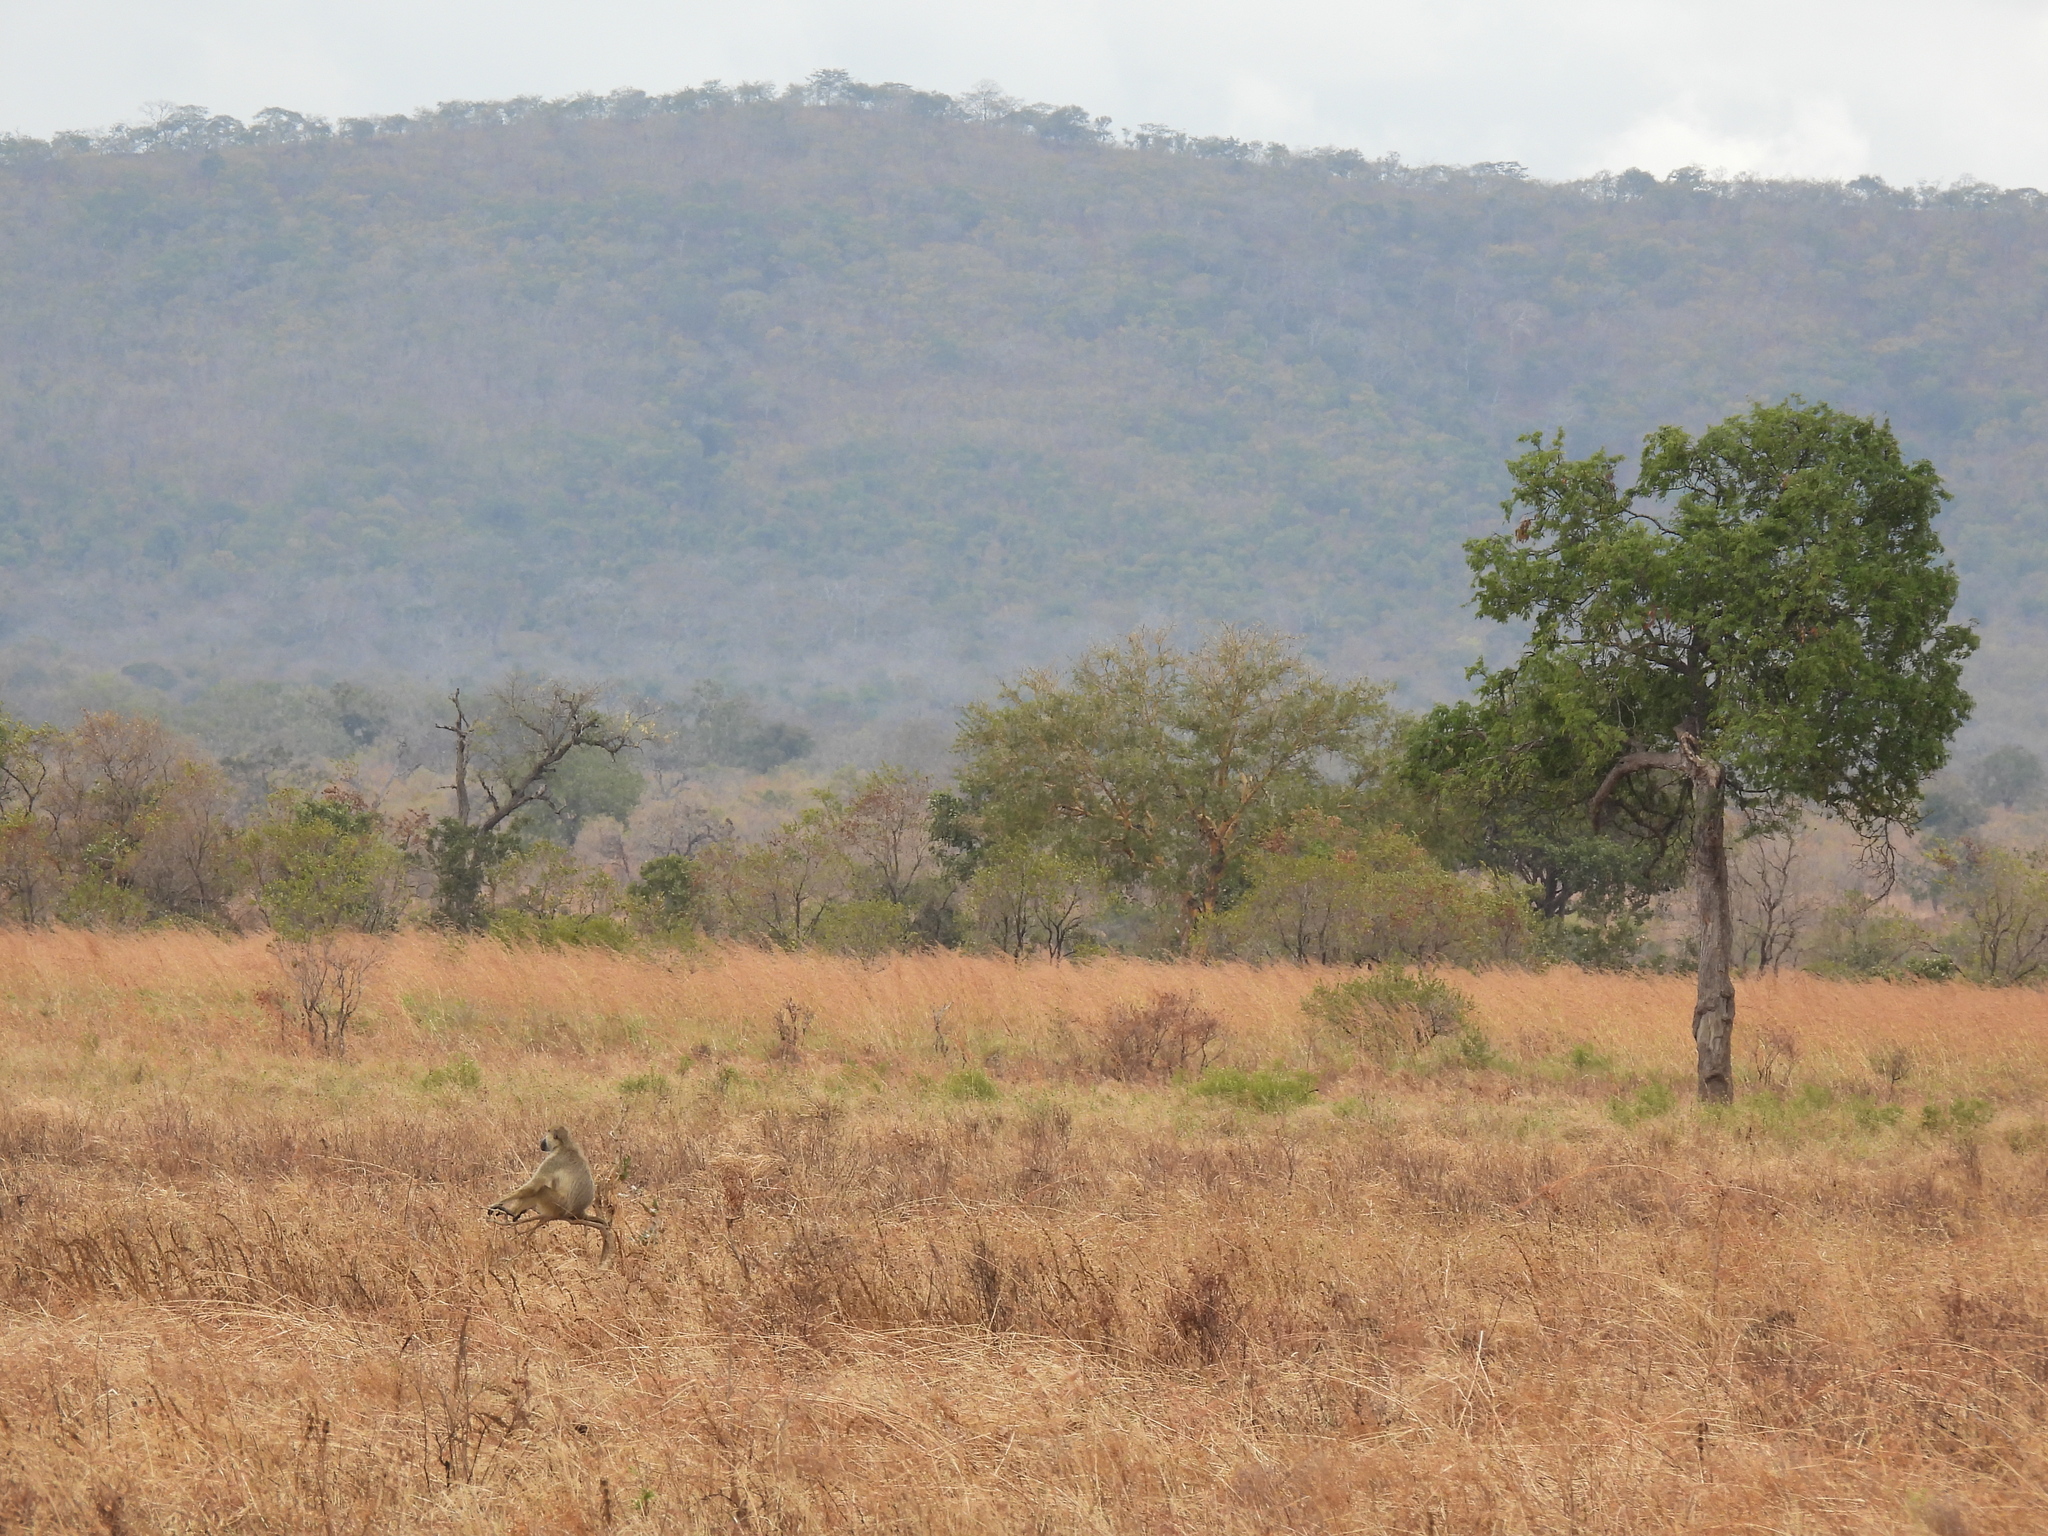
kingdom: Animalia
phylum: Chordata
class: Mammalia
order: Primates
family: Cercopithecidae
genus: Papio
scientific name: Papio cynocephalus
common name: Yellow baboon
